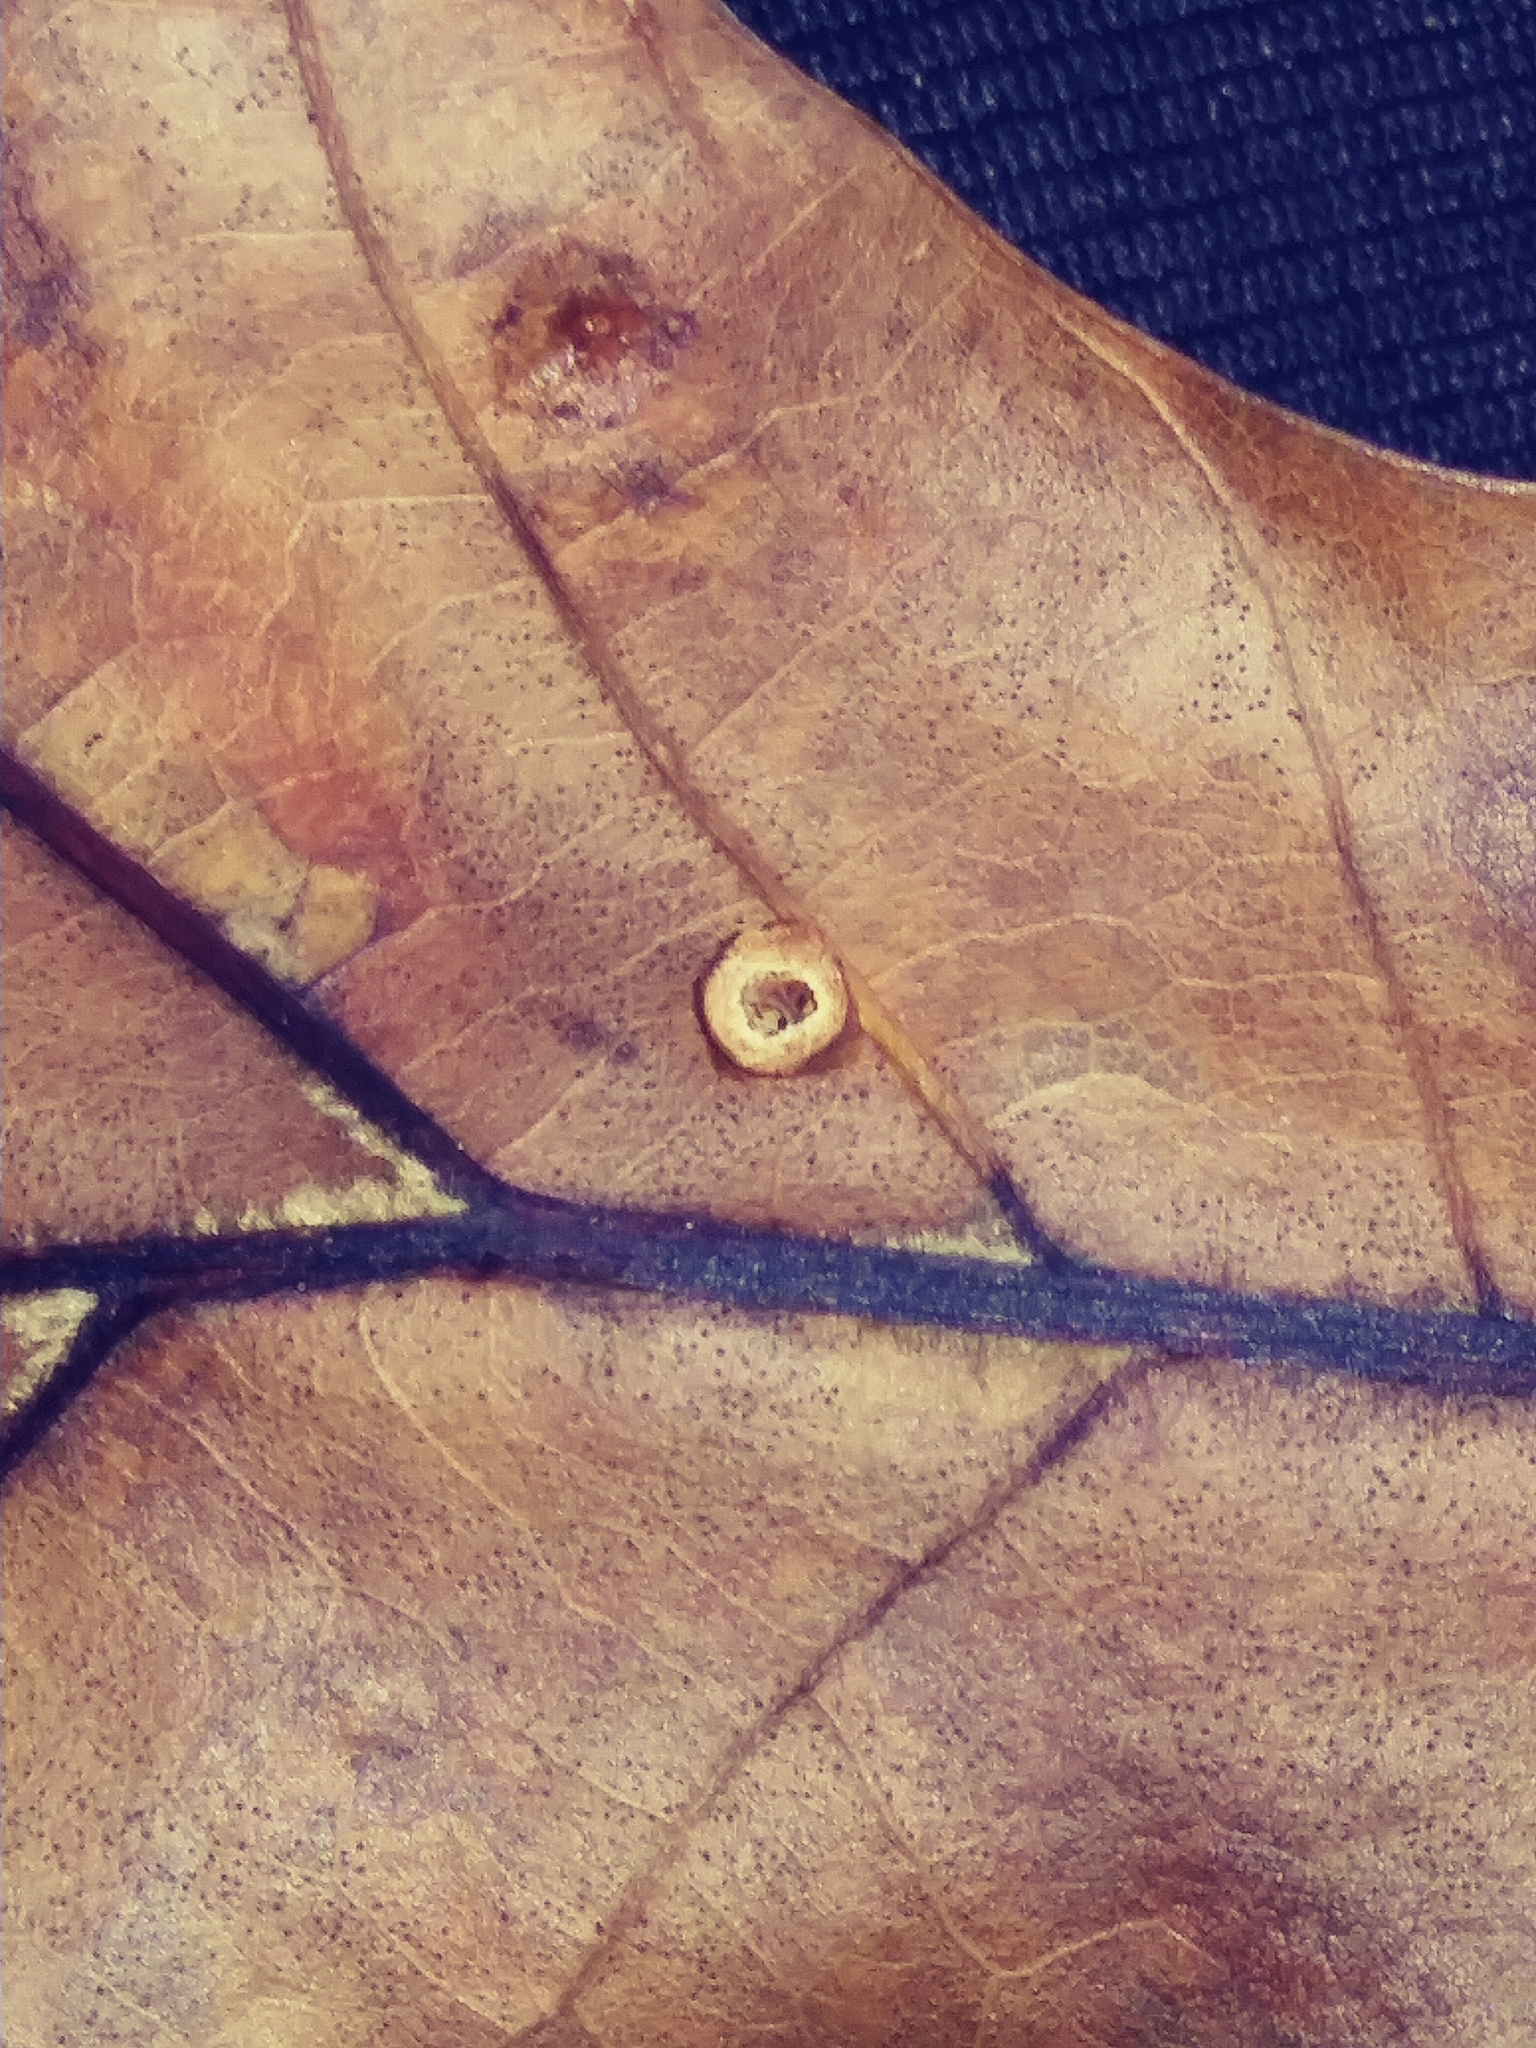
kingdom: Animalia
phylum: Arthropoda
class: Insecta
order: Diptera
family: Cecidomyiidae
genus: Polystepha
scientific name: Polystepha globosa
